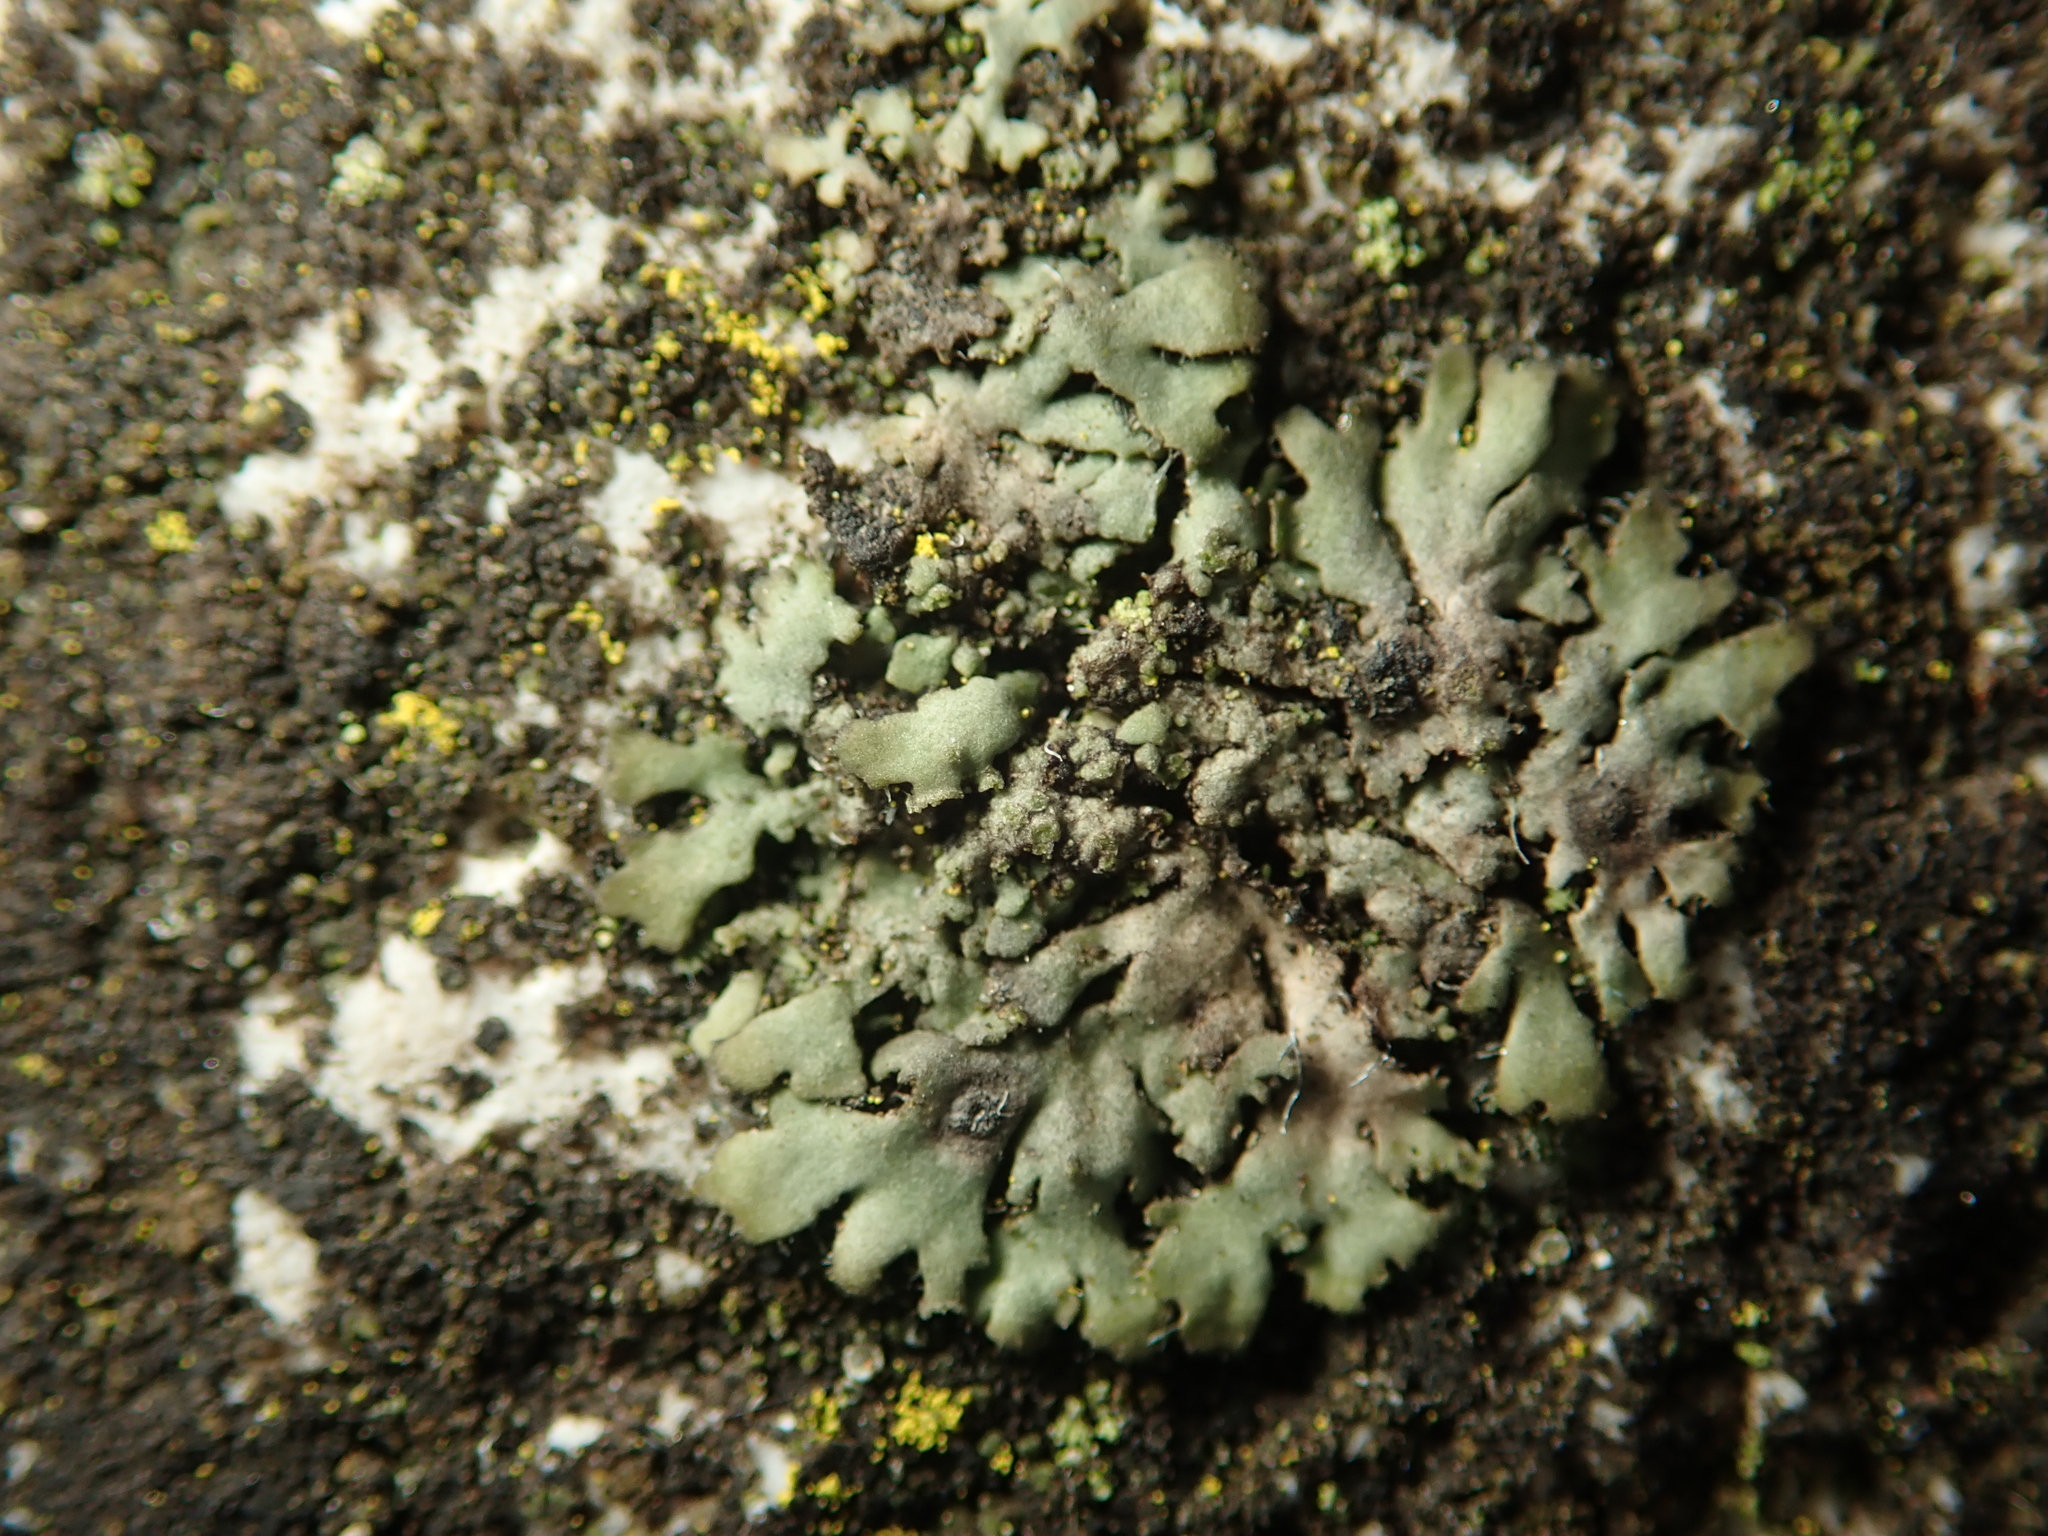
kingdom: Fungi
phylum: Ascomycota
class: Lecanoromycetes
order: Caliciales
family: Physciaceae
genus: Phaeophyscia
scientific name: Phaeophyscia orbicularis
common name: Mealy shadow lichen
